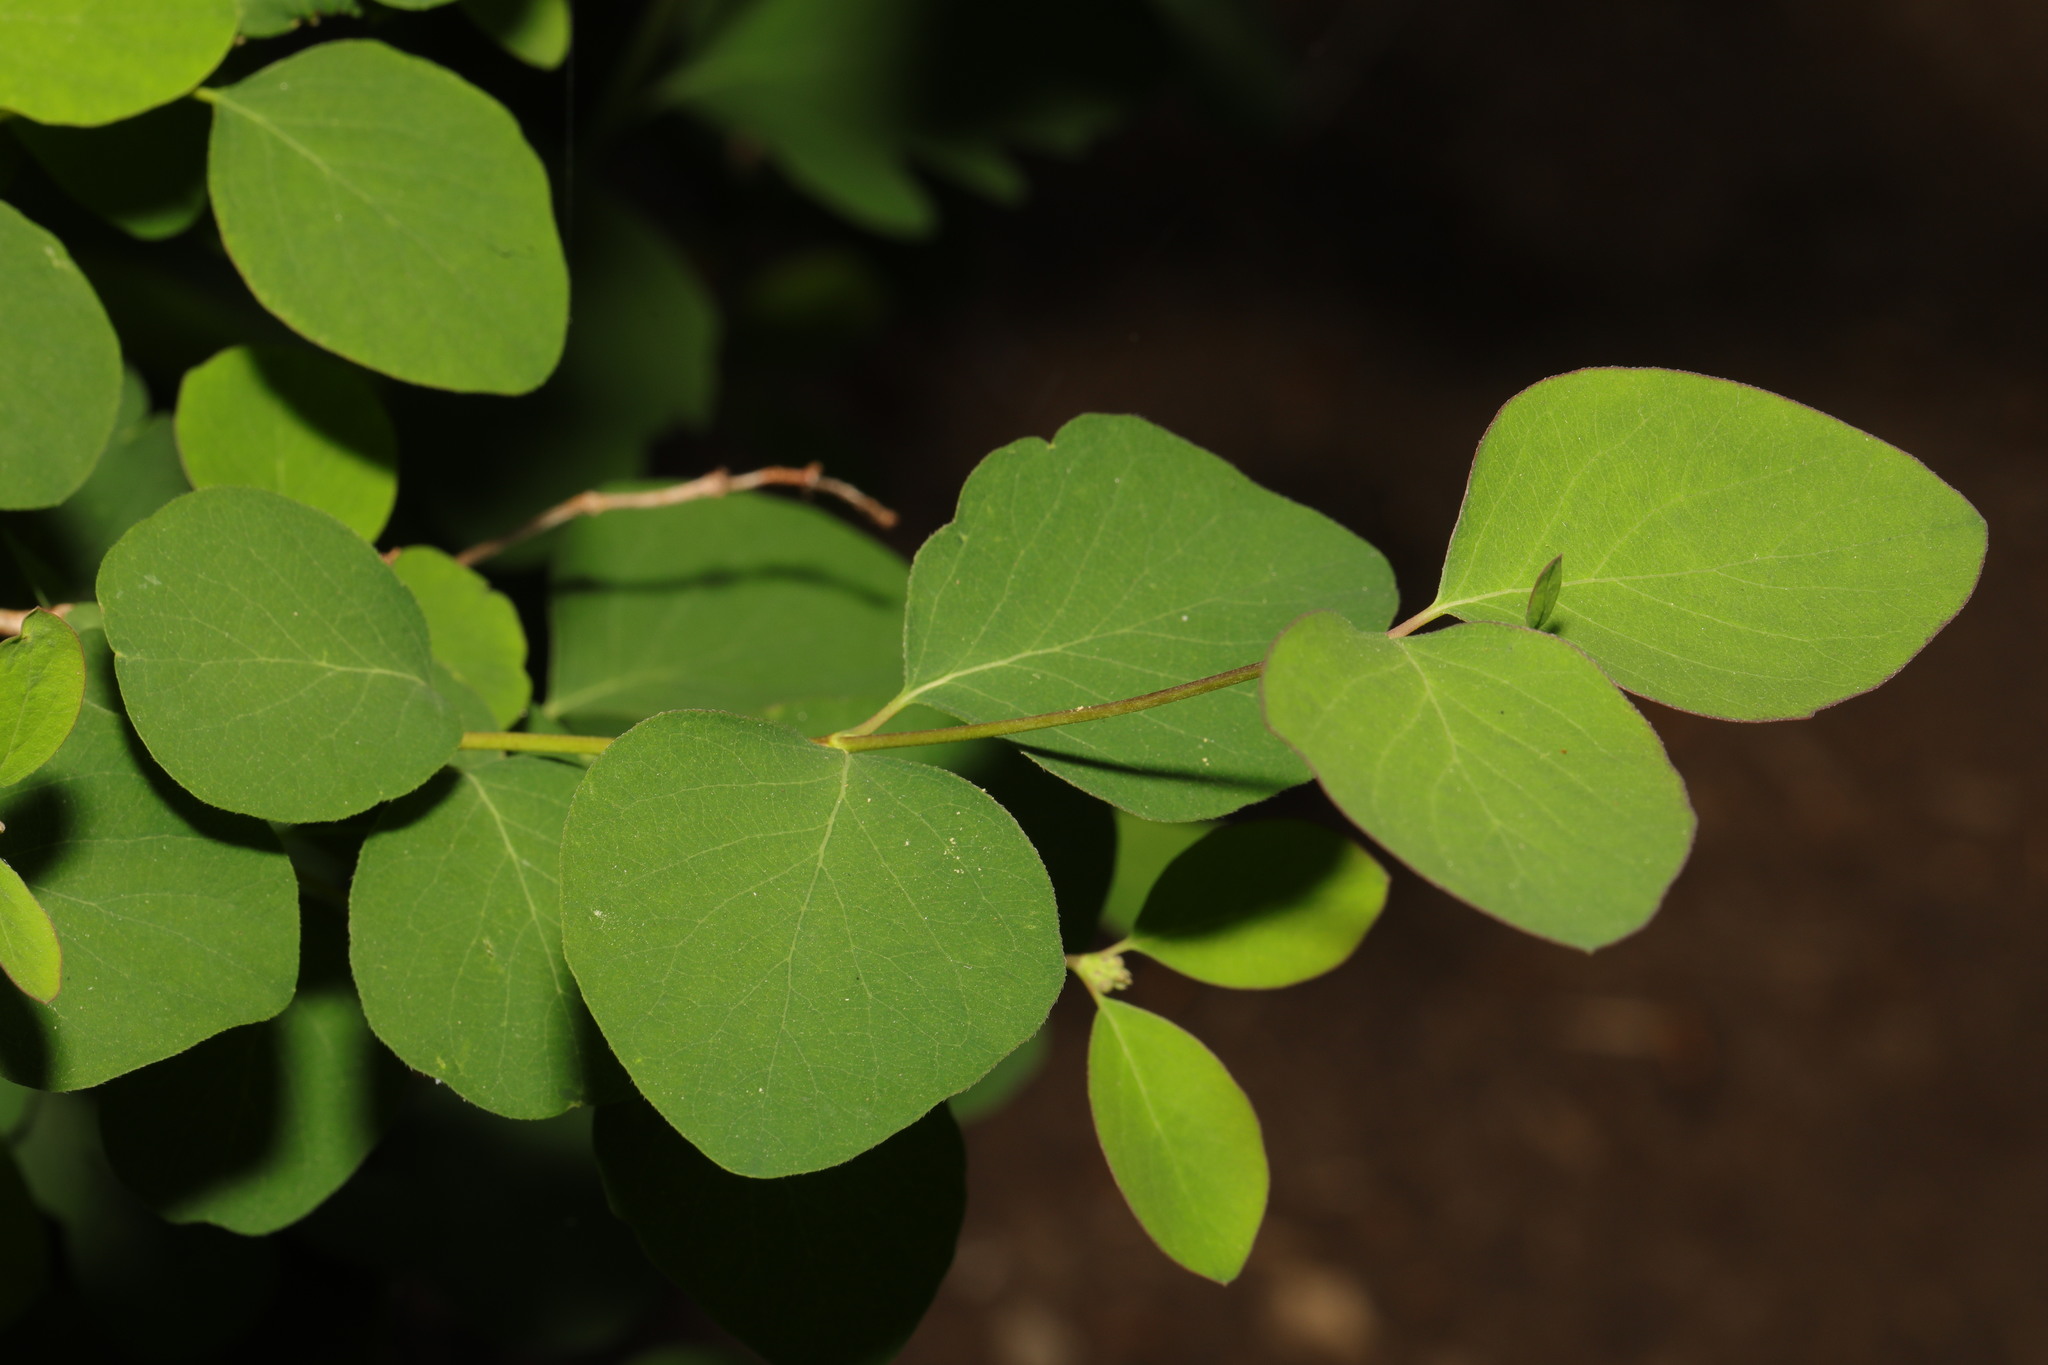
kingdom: Plantae
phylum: Tracheophyta
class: Magnoliopsida
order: Dipsacales
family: Caprifoliaceae
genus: Symphoricarpos
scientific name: Symphoricarpos albus
